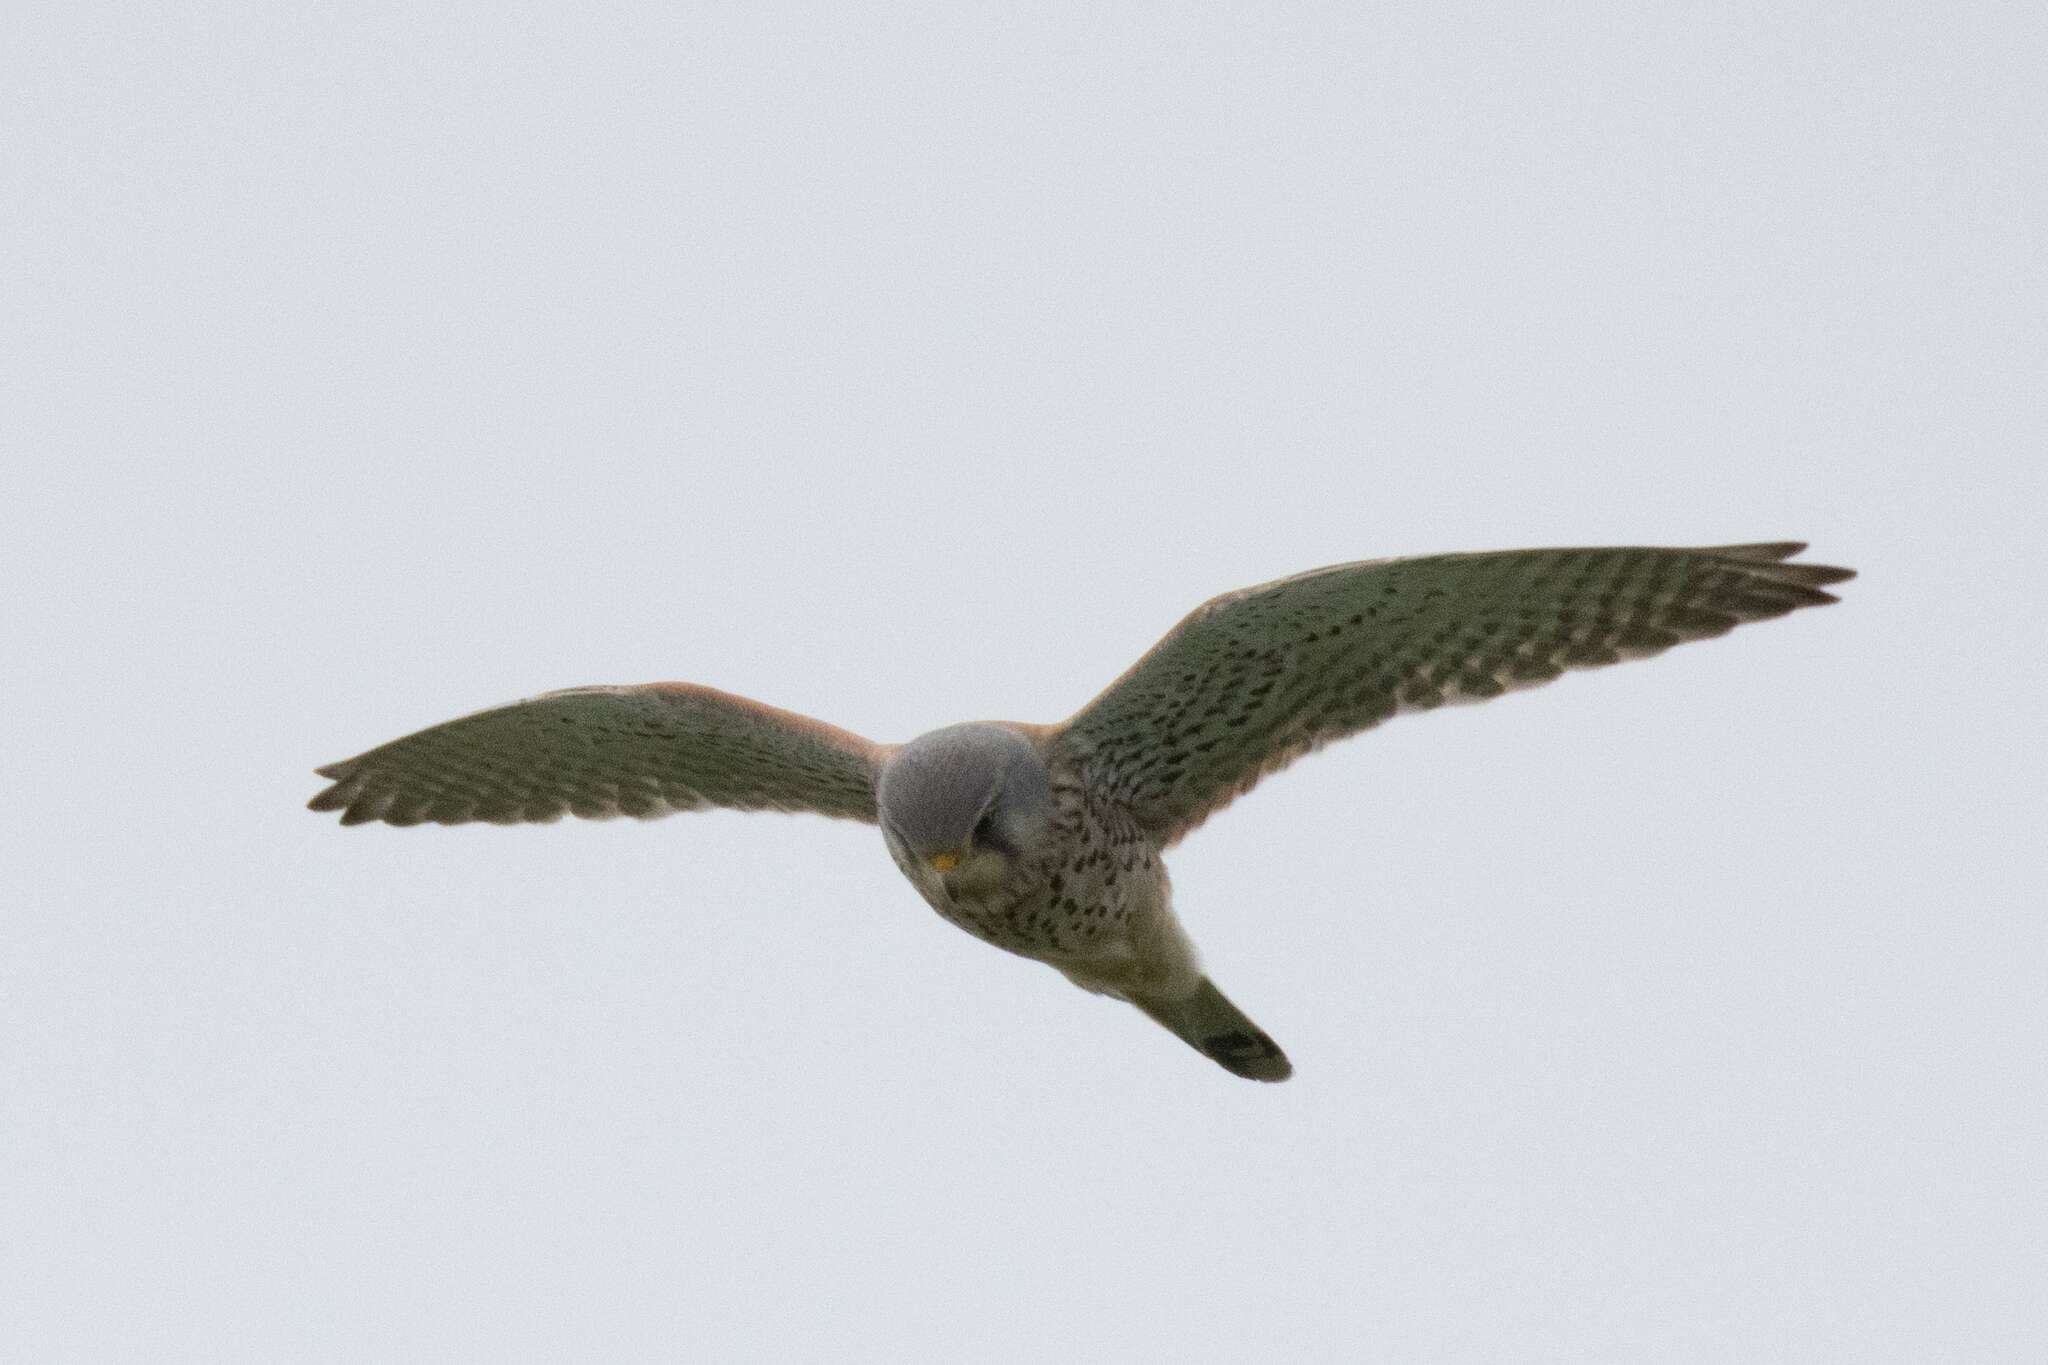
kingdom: Animalia
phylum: Chordata
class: Aves
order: Falconiformes
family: Falconidae
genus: Falco
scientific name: Falco tinnunculus
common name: Common kestrel
